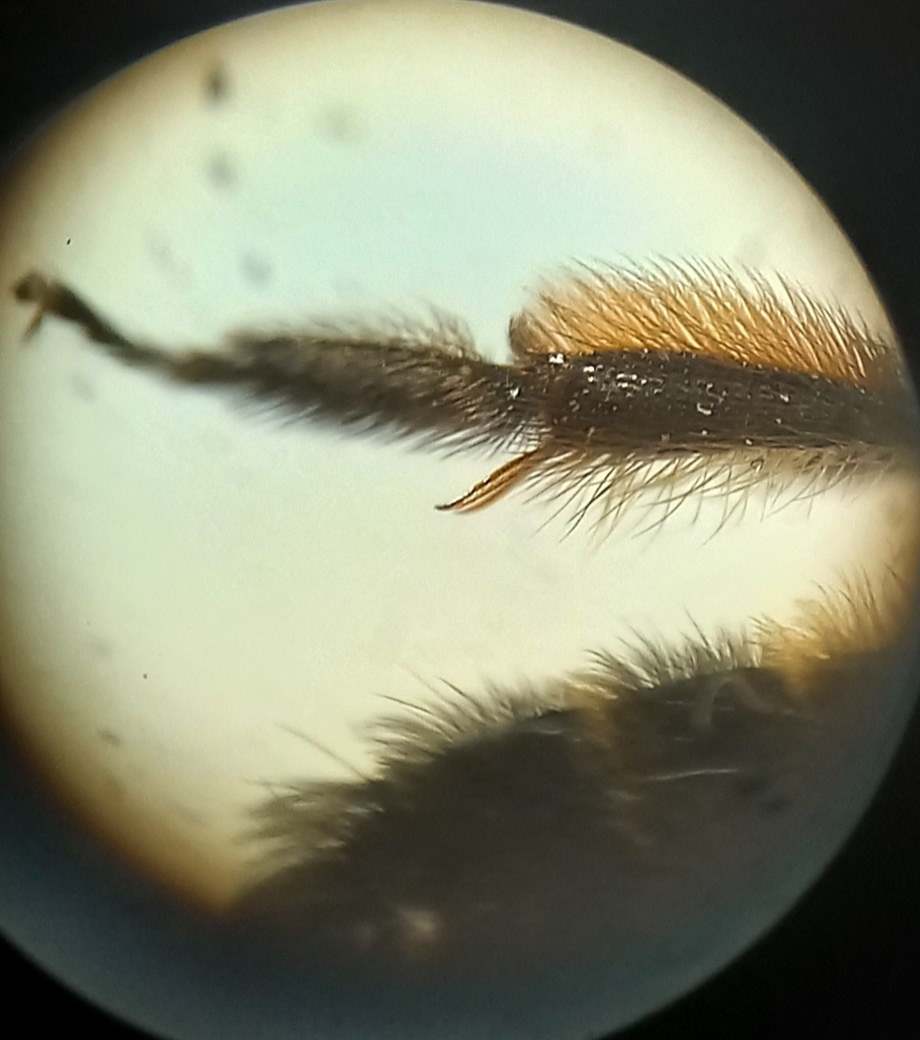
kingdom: Animalia
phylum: Arthropoda
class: Insecta
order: Hymenoptera
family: Andrenidae
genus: Andrena
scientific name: Andrena bicolor
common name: Gwynne's mining bee
